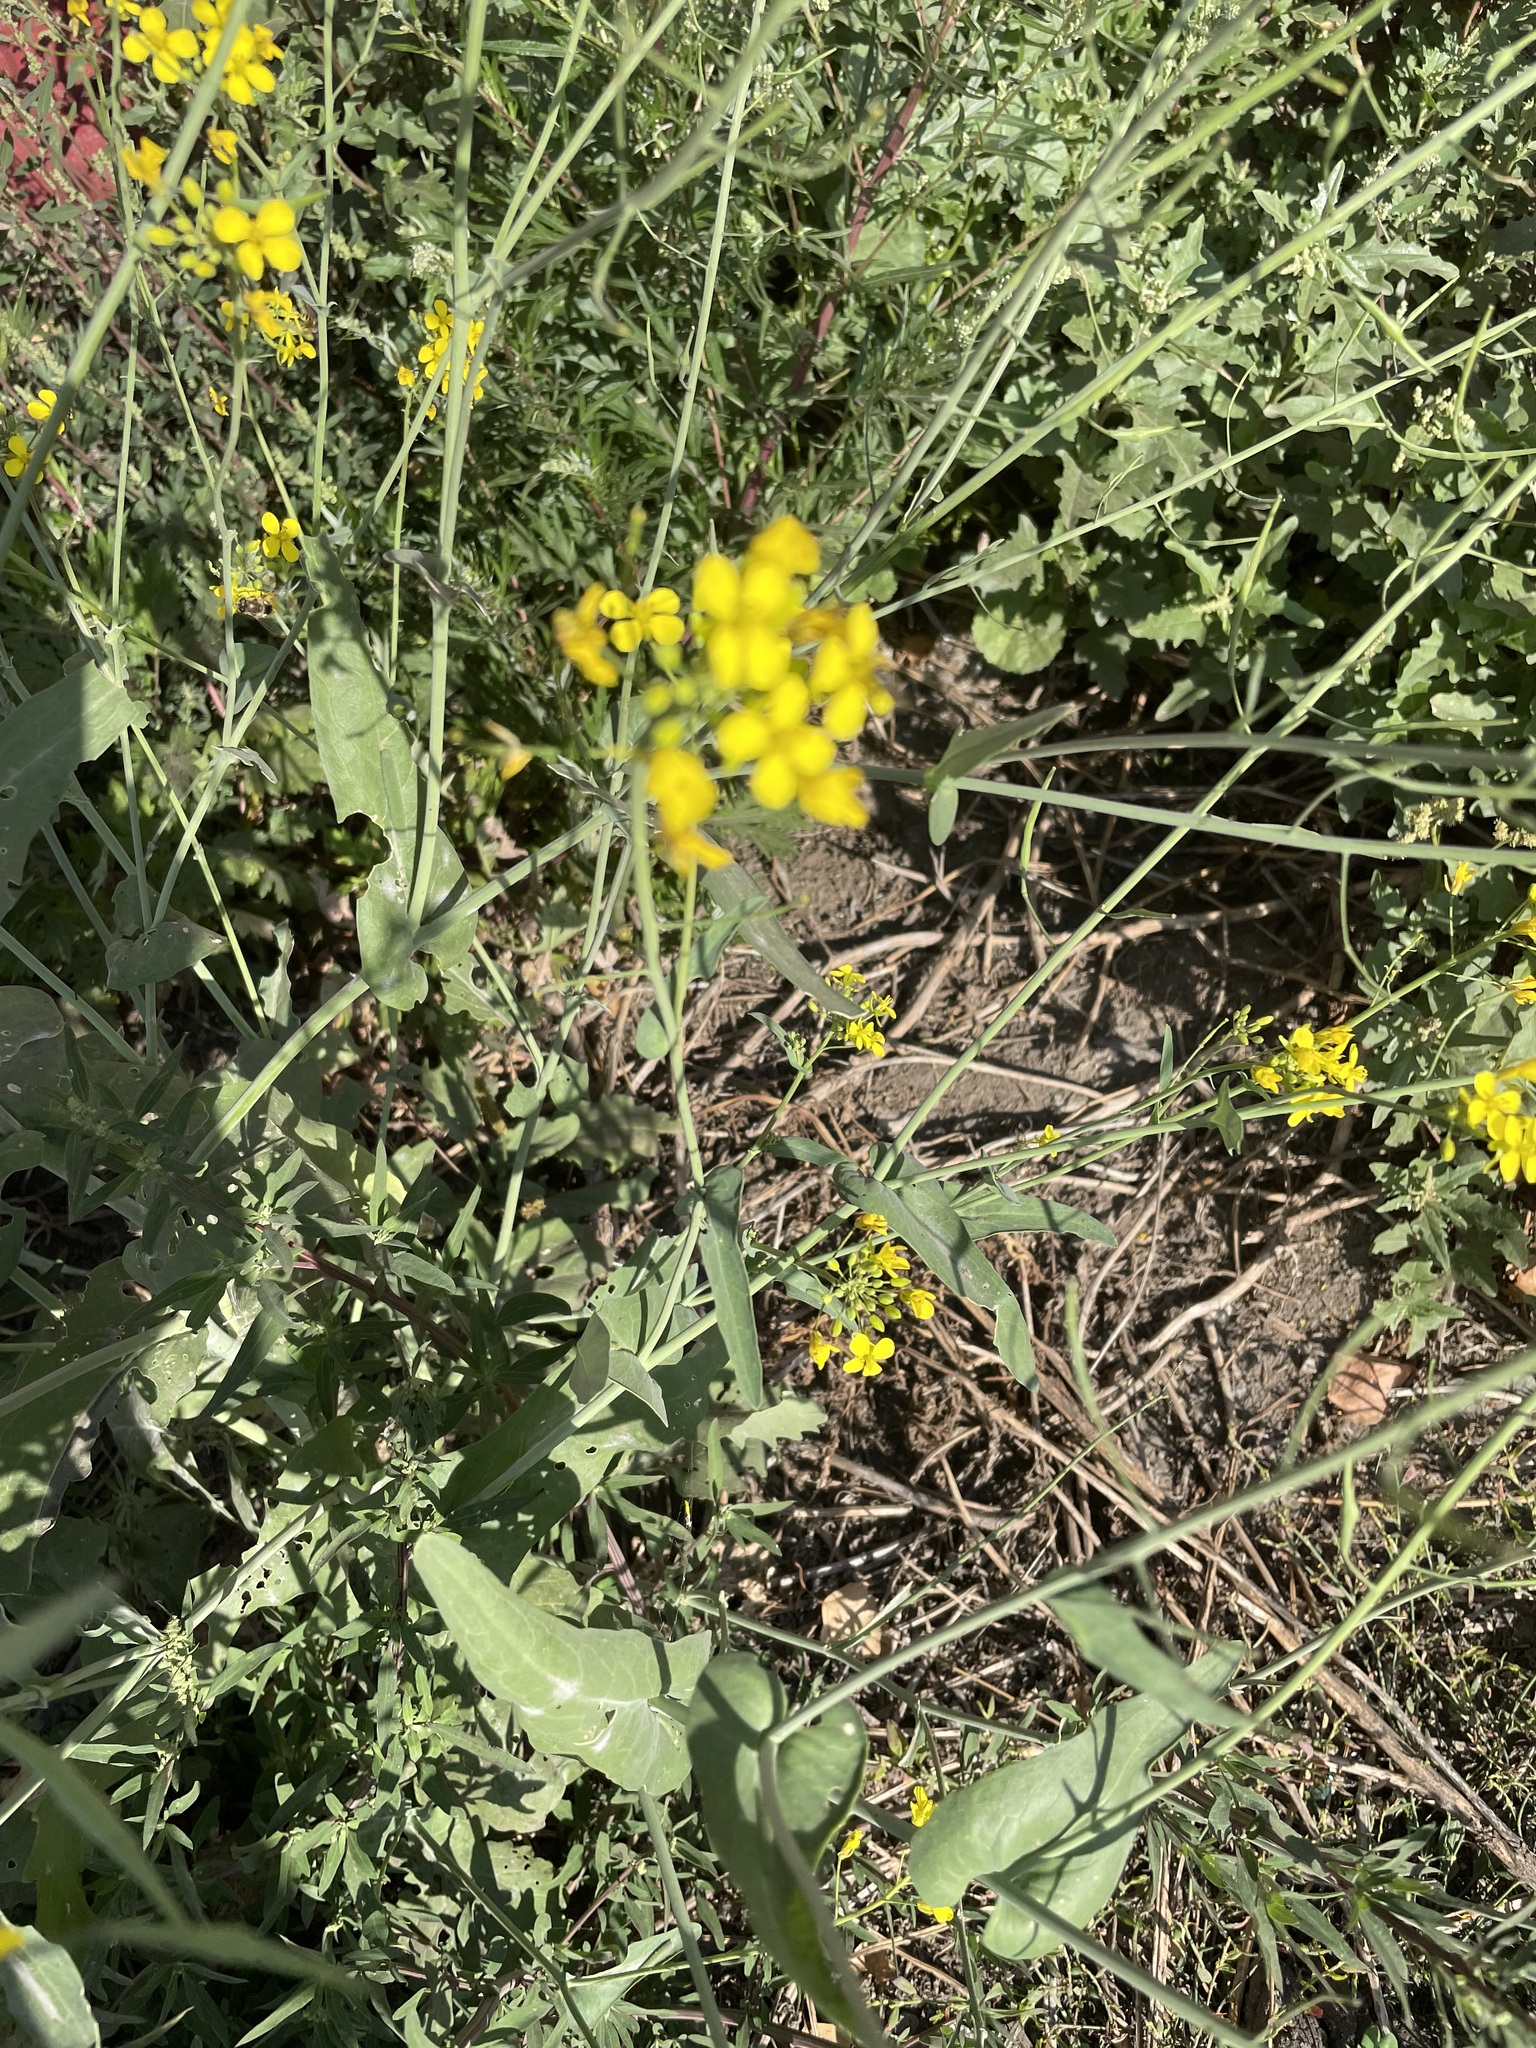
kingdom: Plantae
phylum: Tracheophyta
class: Magnoliopsida
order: Brassicales
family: Brassicaceae
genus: Brassica
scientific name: Brassica rapa
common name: Field mustard
